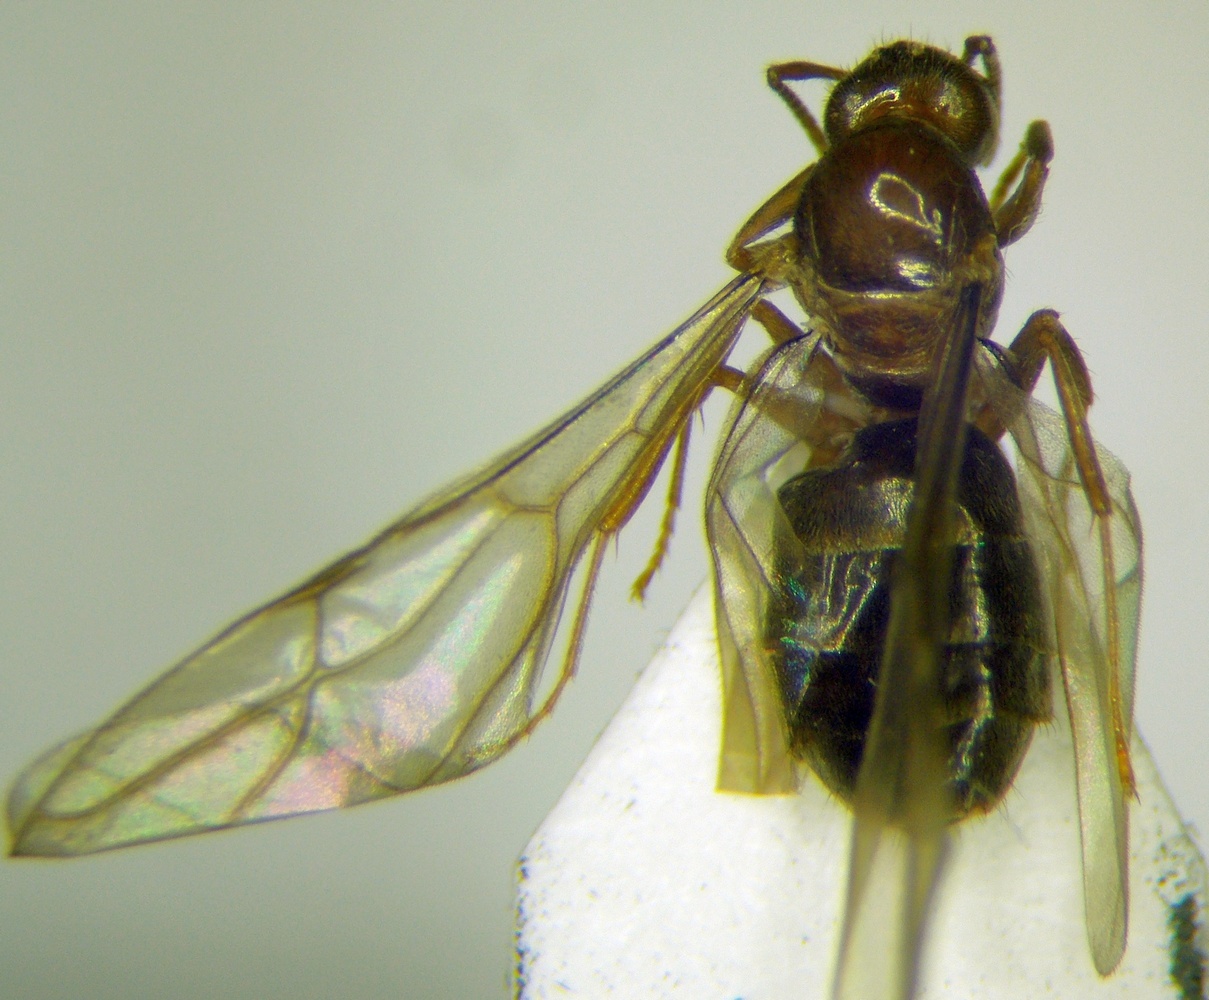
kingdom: Animalia
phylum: Arthropoda
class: Insecta
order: Hymenoptera
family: Formicidae
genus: Paratrechina
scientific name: Paratrechina jaegerskioeldi
